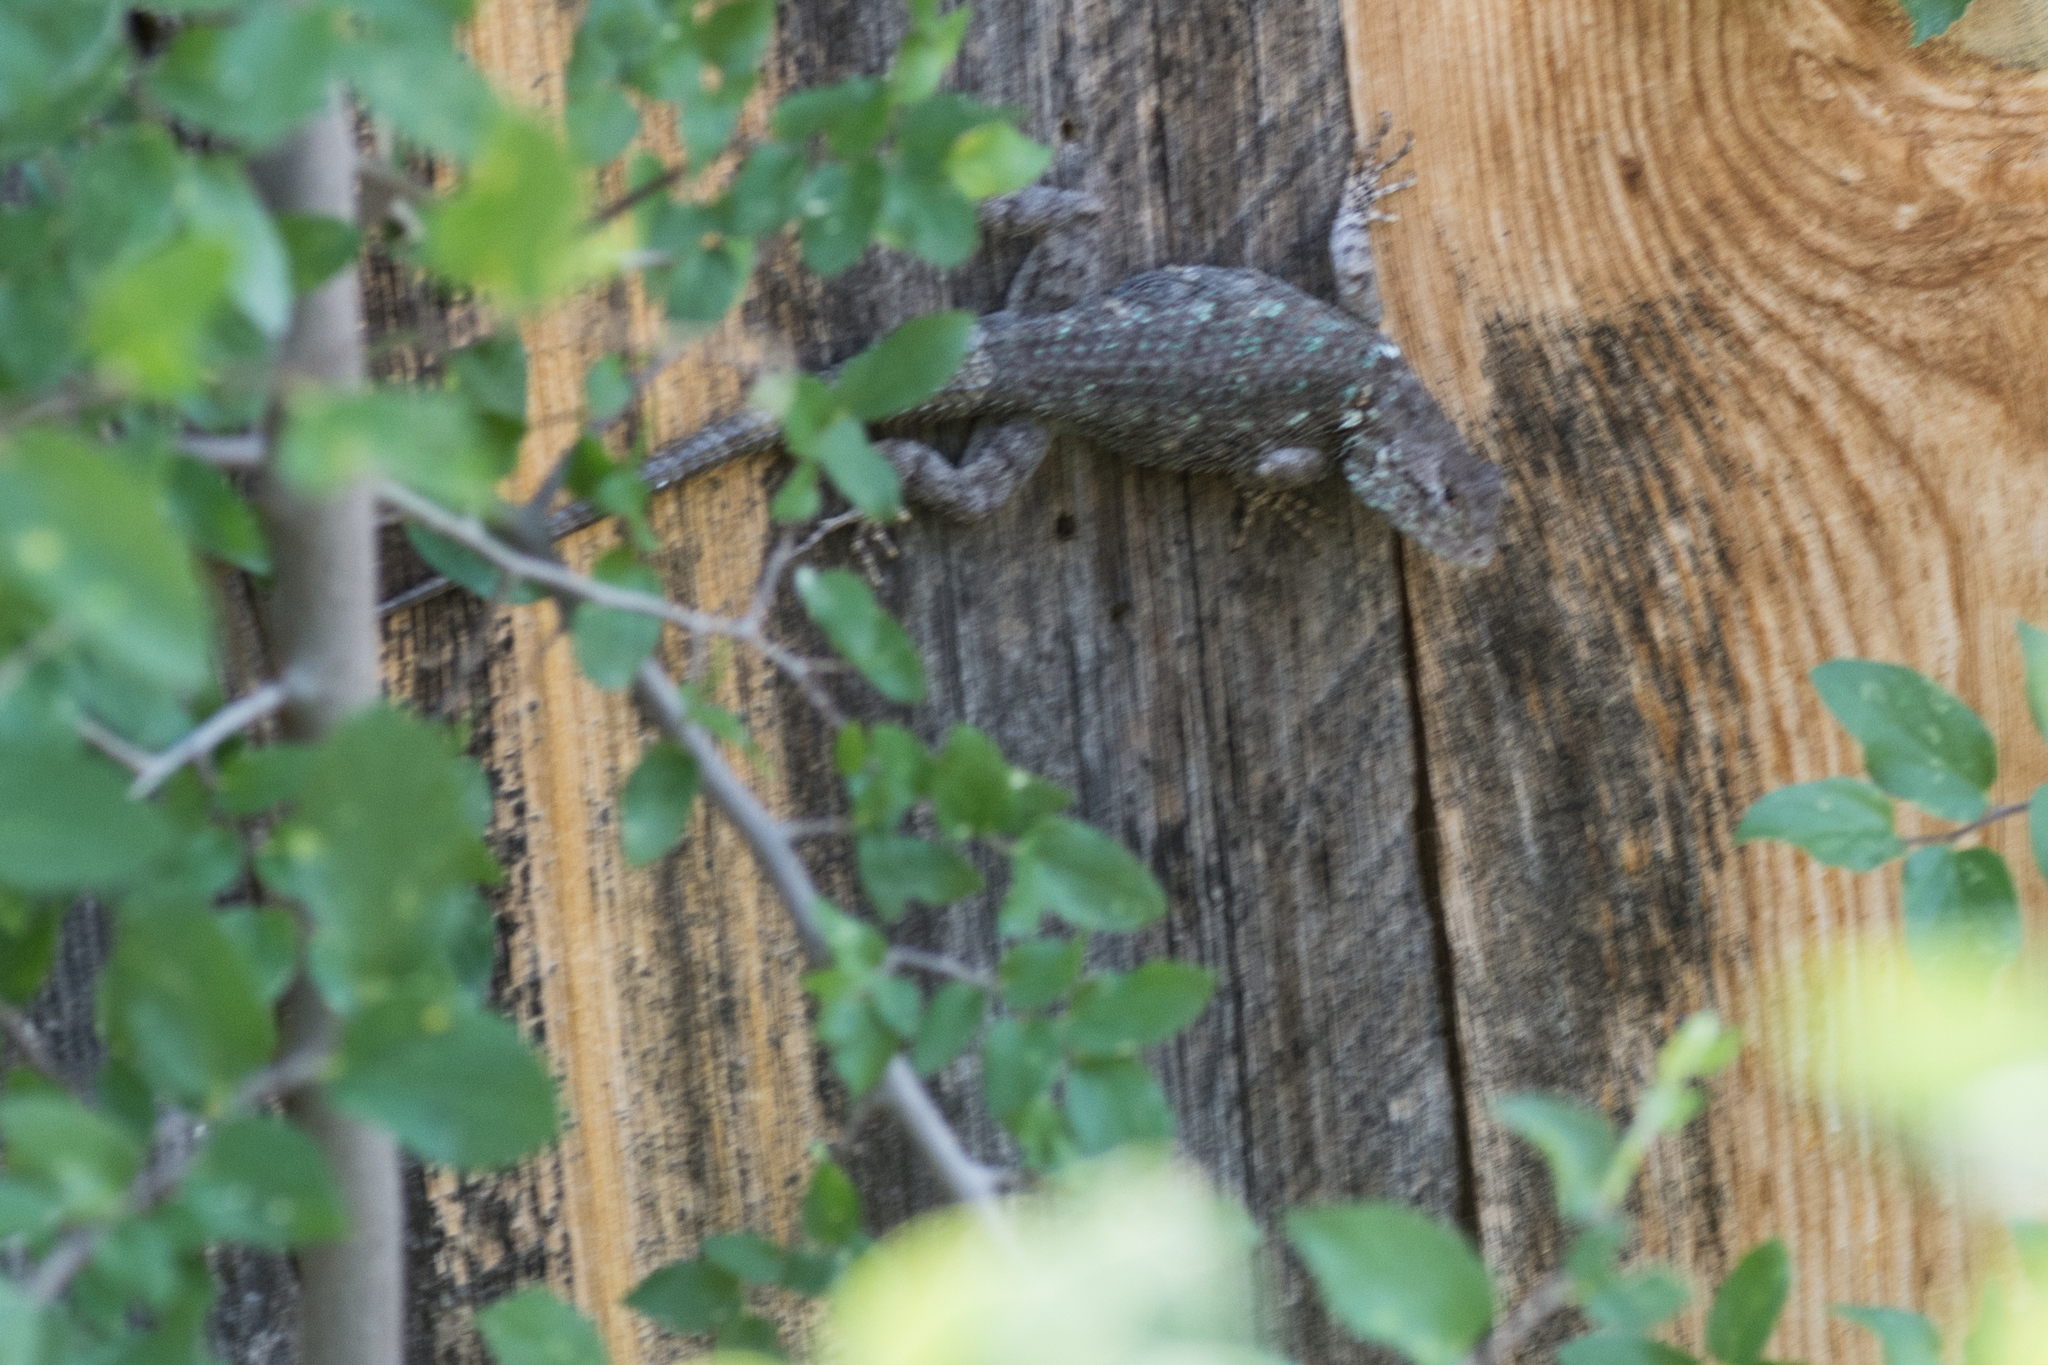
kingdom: Animalia
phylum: Chordata
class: Squamata
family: Phrynosomatidae
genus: Sceloporus
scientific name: Sceloporus clarkii
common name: Clark's spiny lizard
